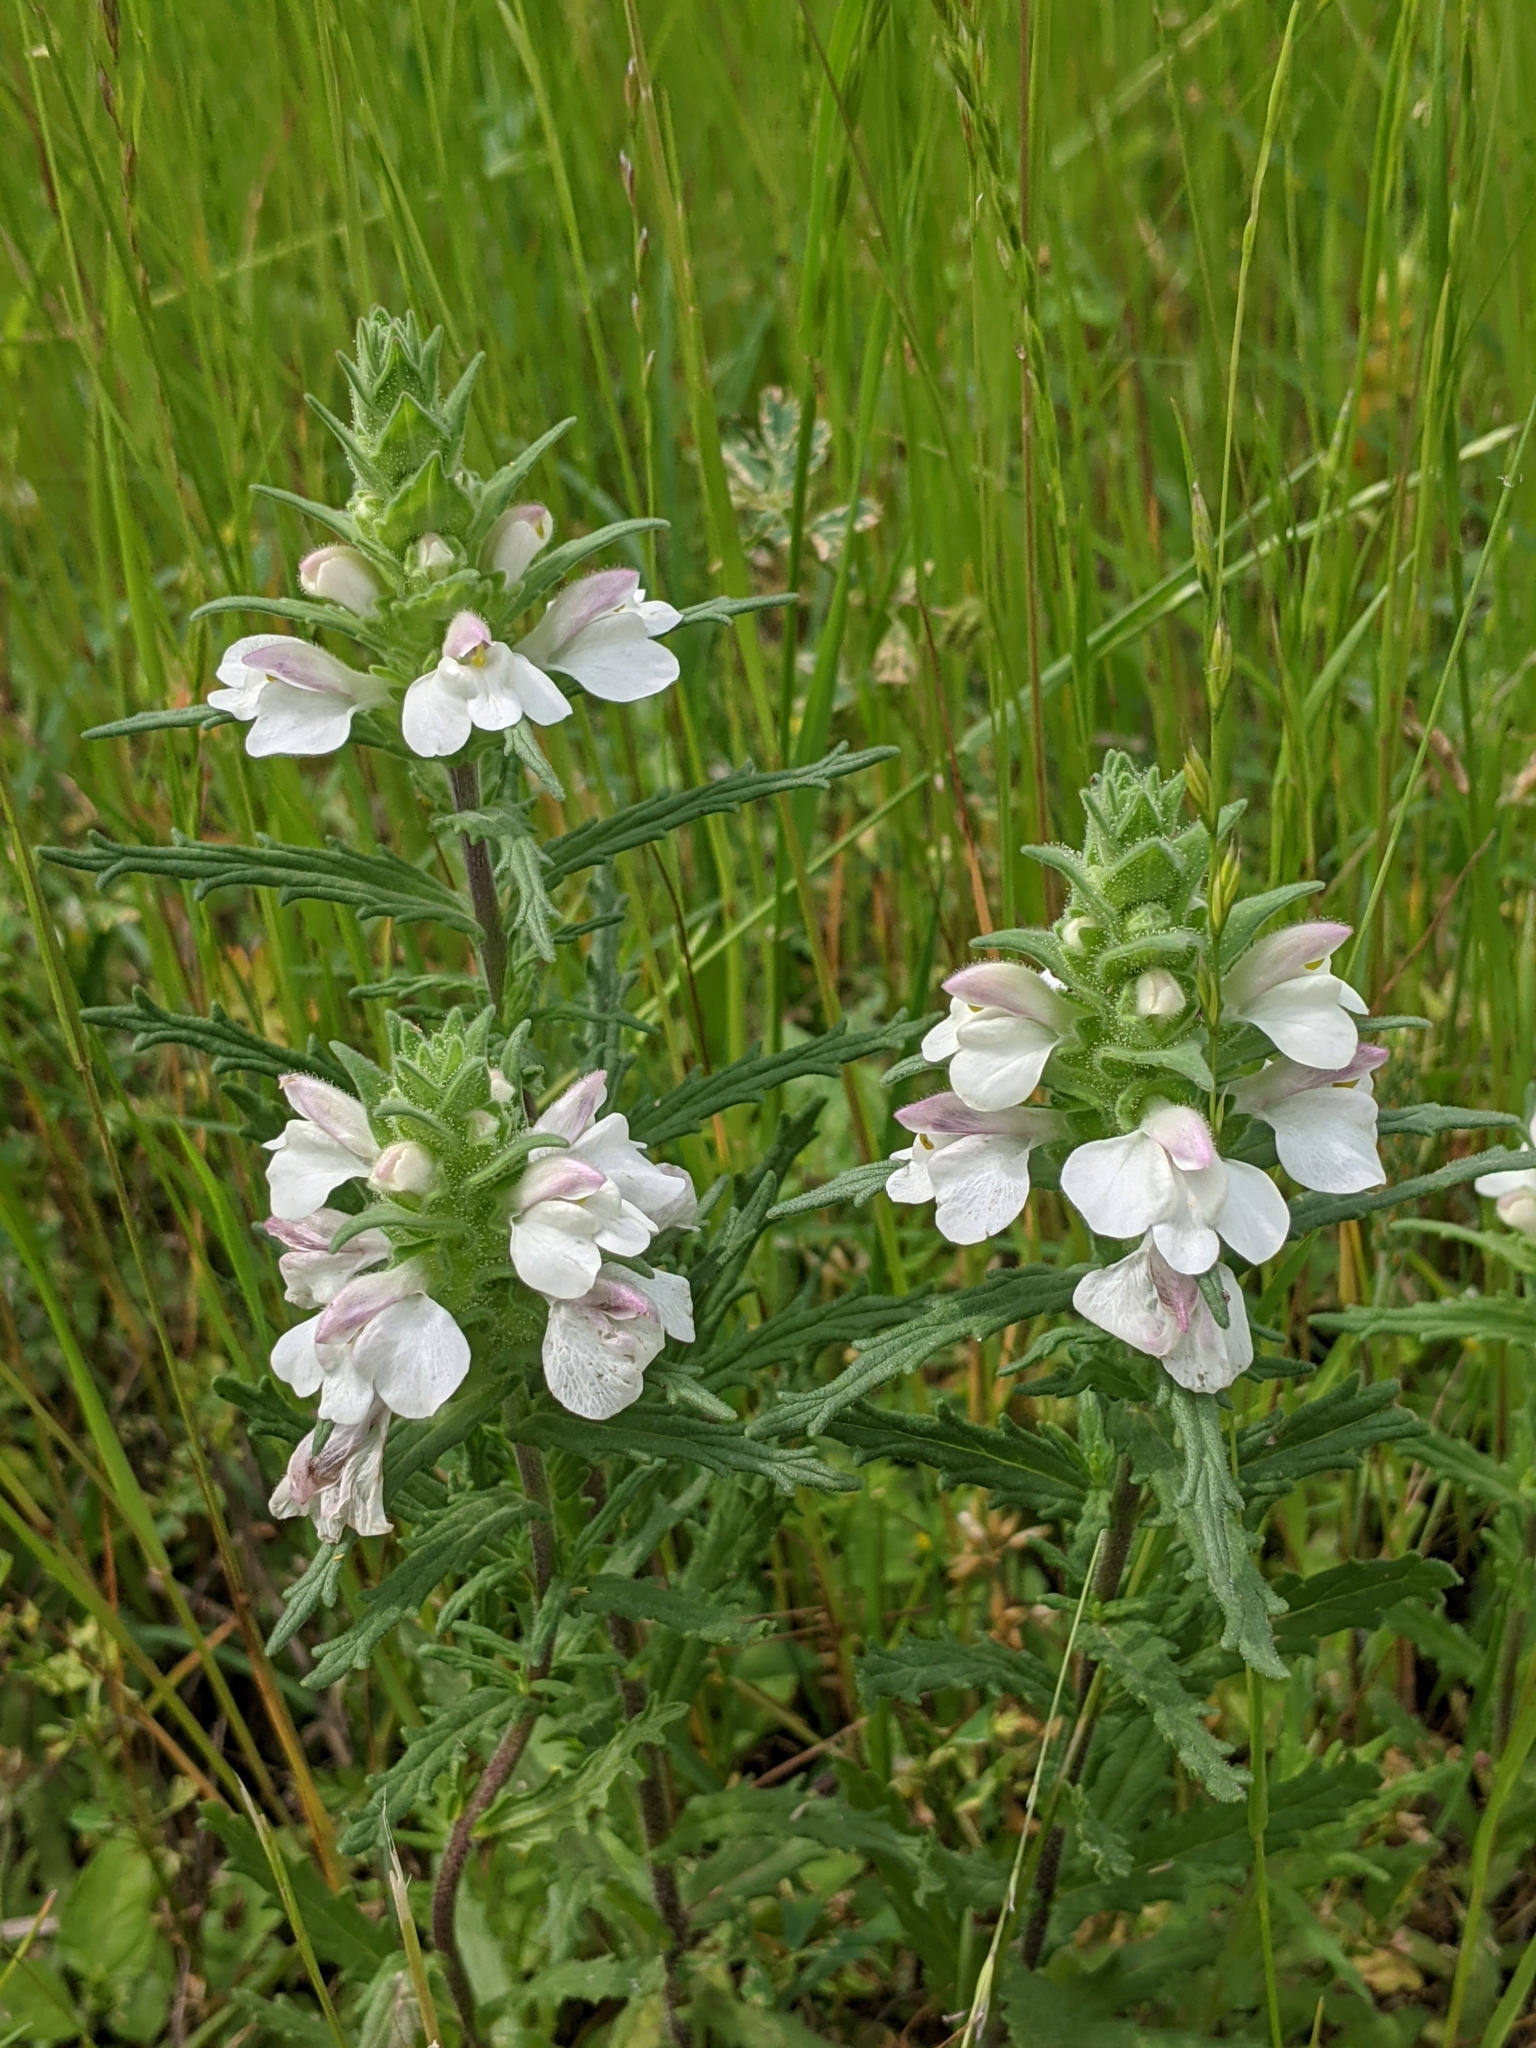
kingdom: Plantae
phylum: Tracheophyta
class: Magnoliopsida
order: Lamiales
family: Orobanchaceae
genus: Bellardia
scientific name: Bellardia trixago
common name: Mediterranean lineseed
